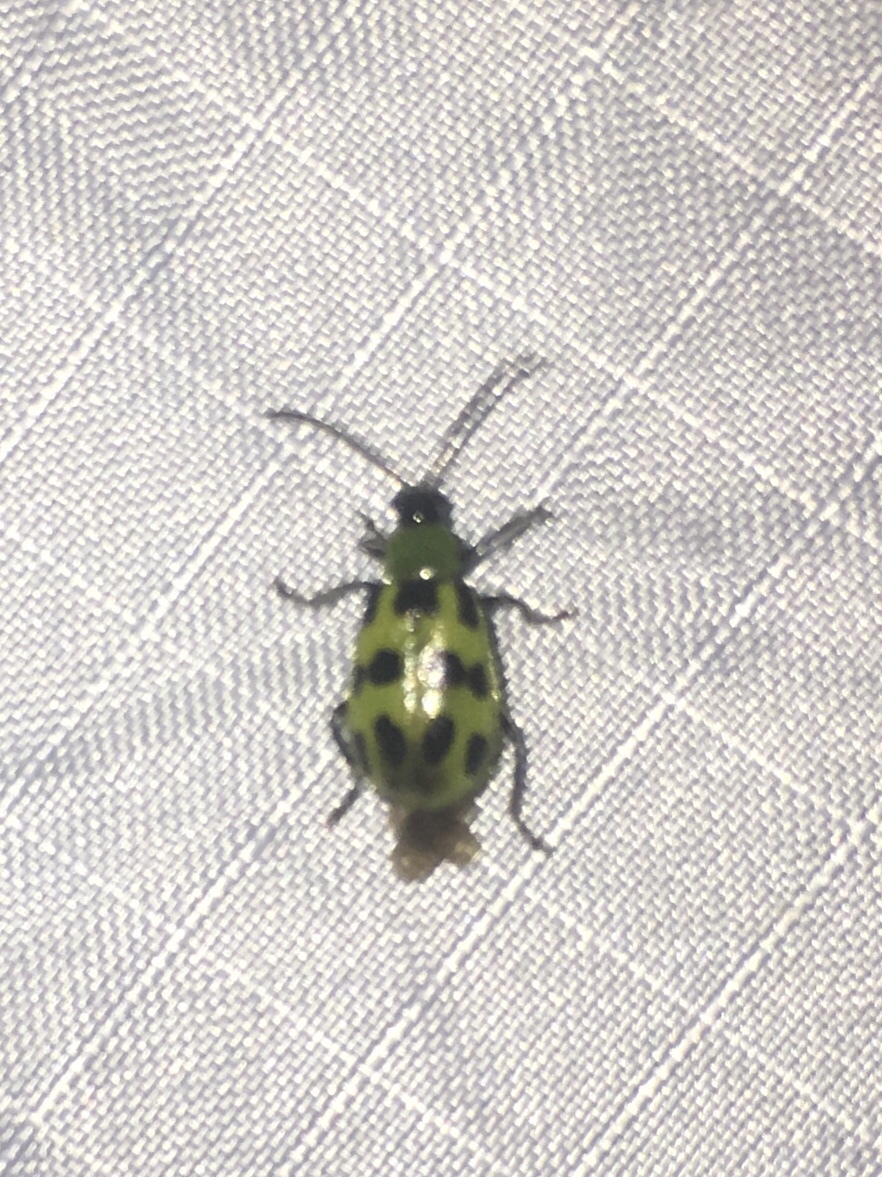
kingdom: Animalia
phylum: Arthropoda
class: Insecta
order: Coleoptera
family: Chrysomelidae
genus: Diabrotica
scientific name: Diabrotica undecimpunctata
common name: Spotted cucumber beetle
